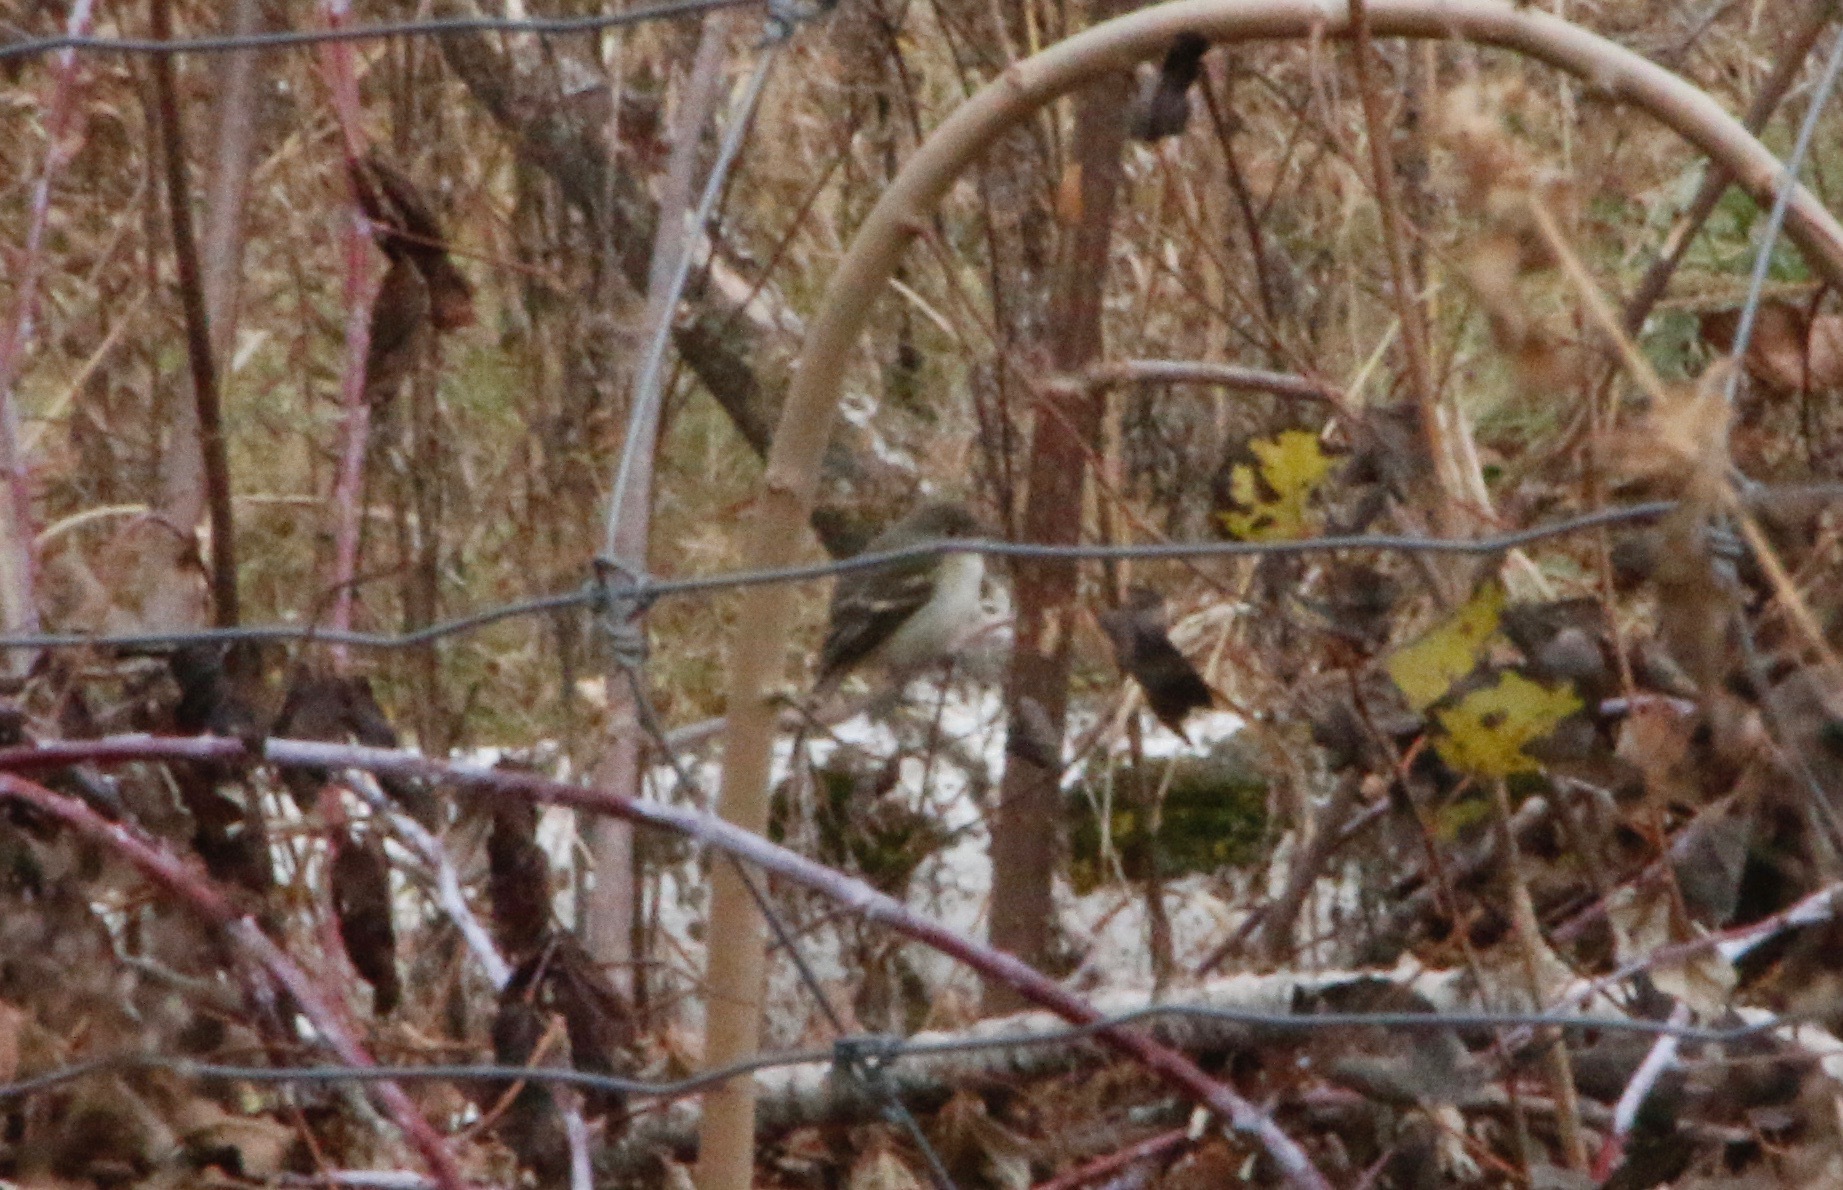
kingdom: Animalia
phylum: Chordata
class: Aves
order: Passeriformes
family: Tyrannidae
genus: Empidonax
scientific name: Empidonax minimus
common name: Least flycatcher
